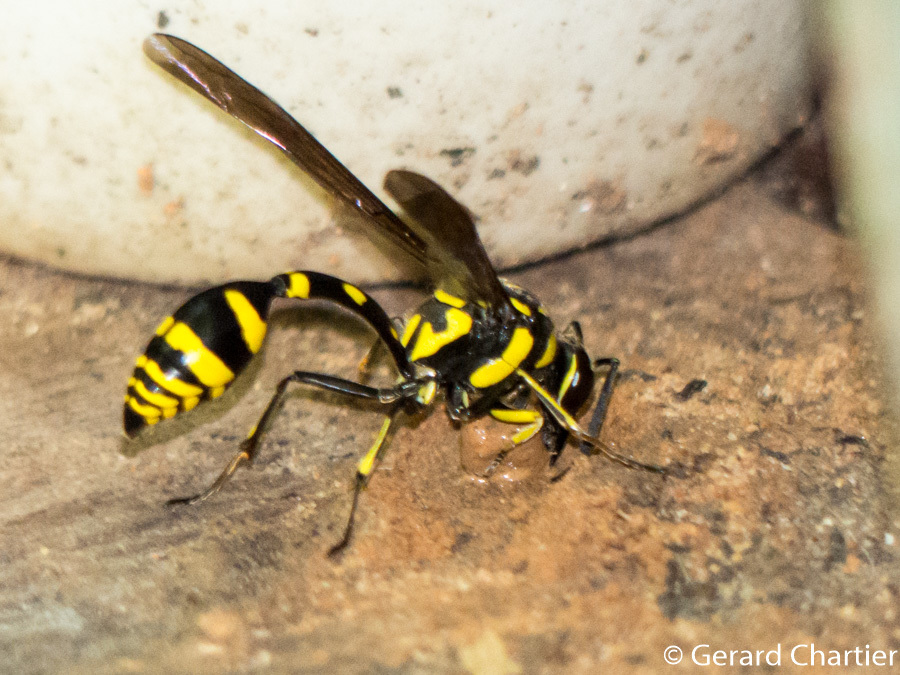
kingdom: Animalia
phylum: Arthropoda
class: Insecta
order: Hymenoptera
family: Eumenidae
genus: Phimenes
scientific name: Phimenes flavopictus
